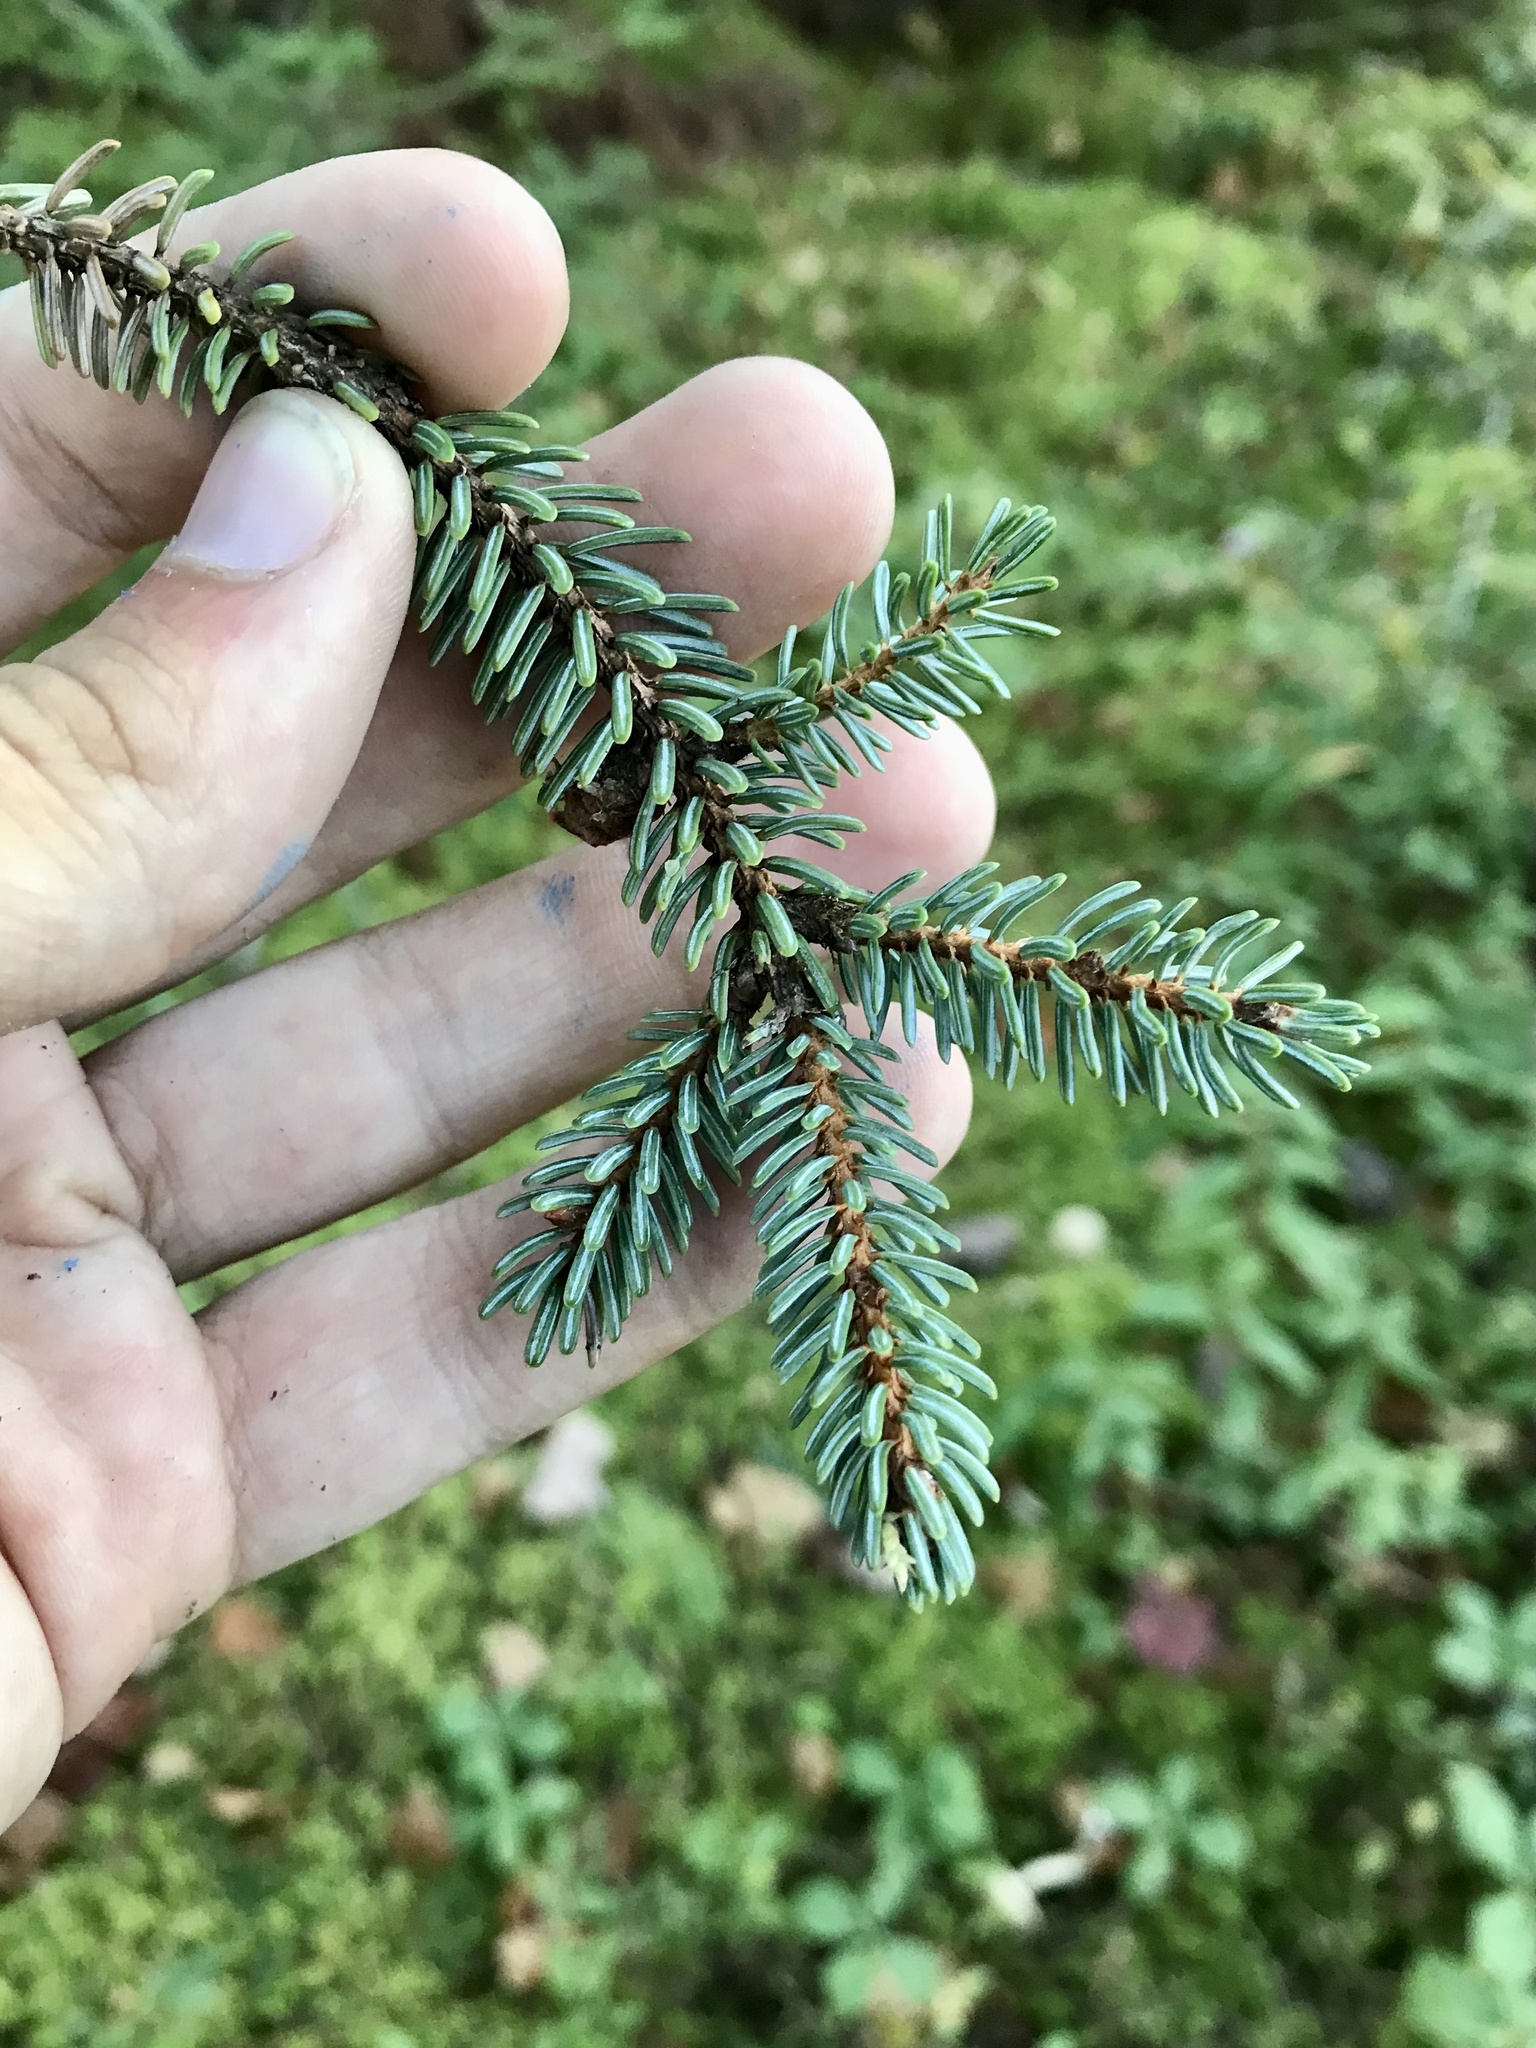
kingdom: Plantae
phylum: Tracheophyta
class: Pinopsida
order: Pinales
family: Pinaceae
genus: Picea
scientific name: Picea mariana
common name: Black spruce
